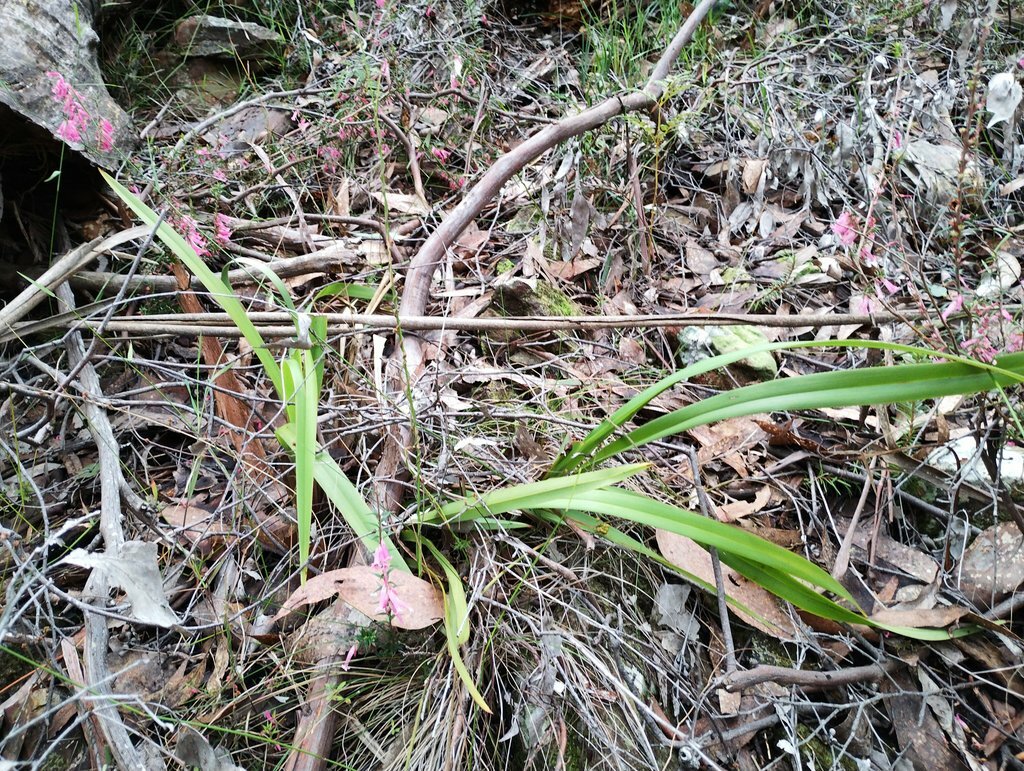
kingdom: Plantae
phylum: Tracheophyta
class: Liliopsida
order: Asparagales
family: Asphodelaceae
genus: Dianella
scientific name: Dianella tasmanica
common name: Tasman flax-lily
